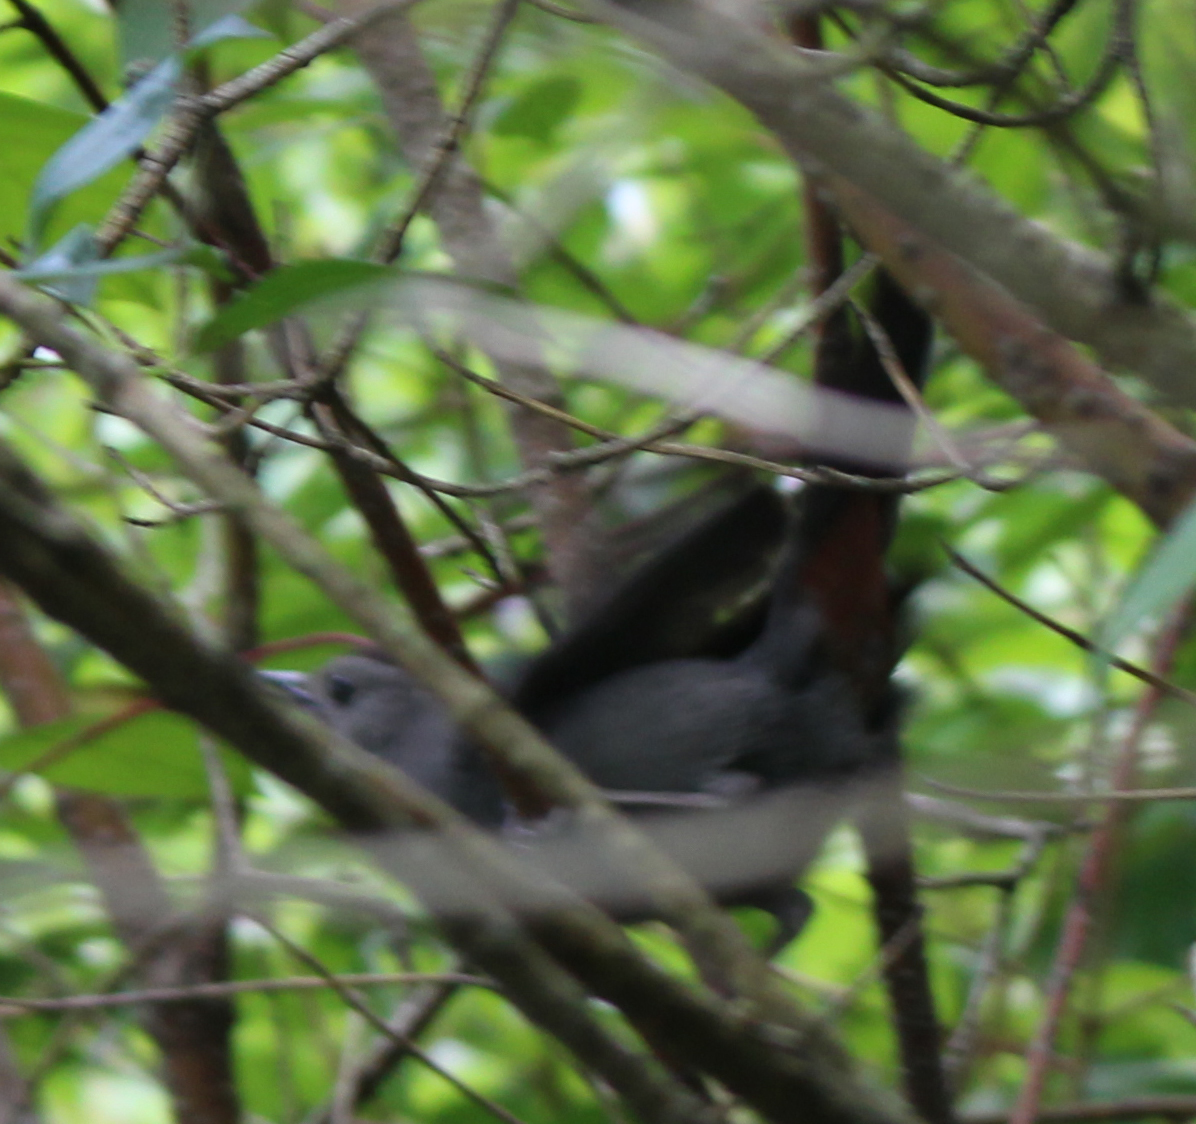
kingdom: Animalia
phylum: Chordata
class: Aves
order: Passeriformes
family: Mimidae
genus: Dumetella
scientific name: Dumetella carolinensis
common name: Gray catbird
